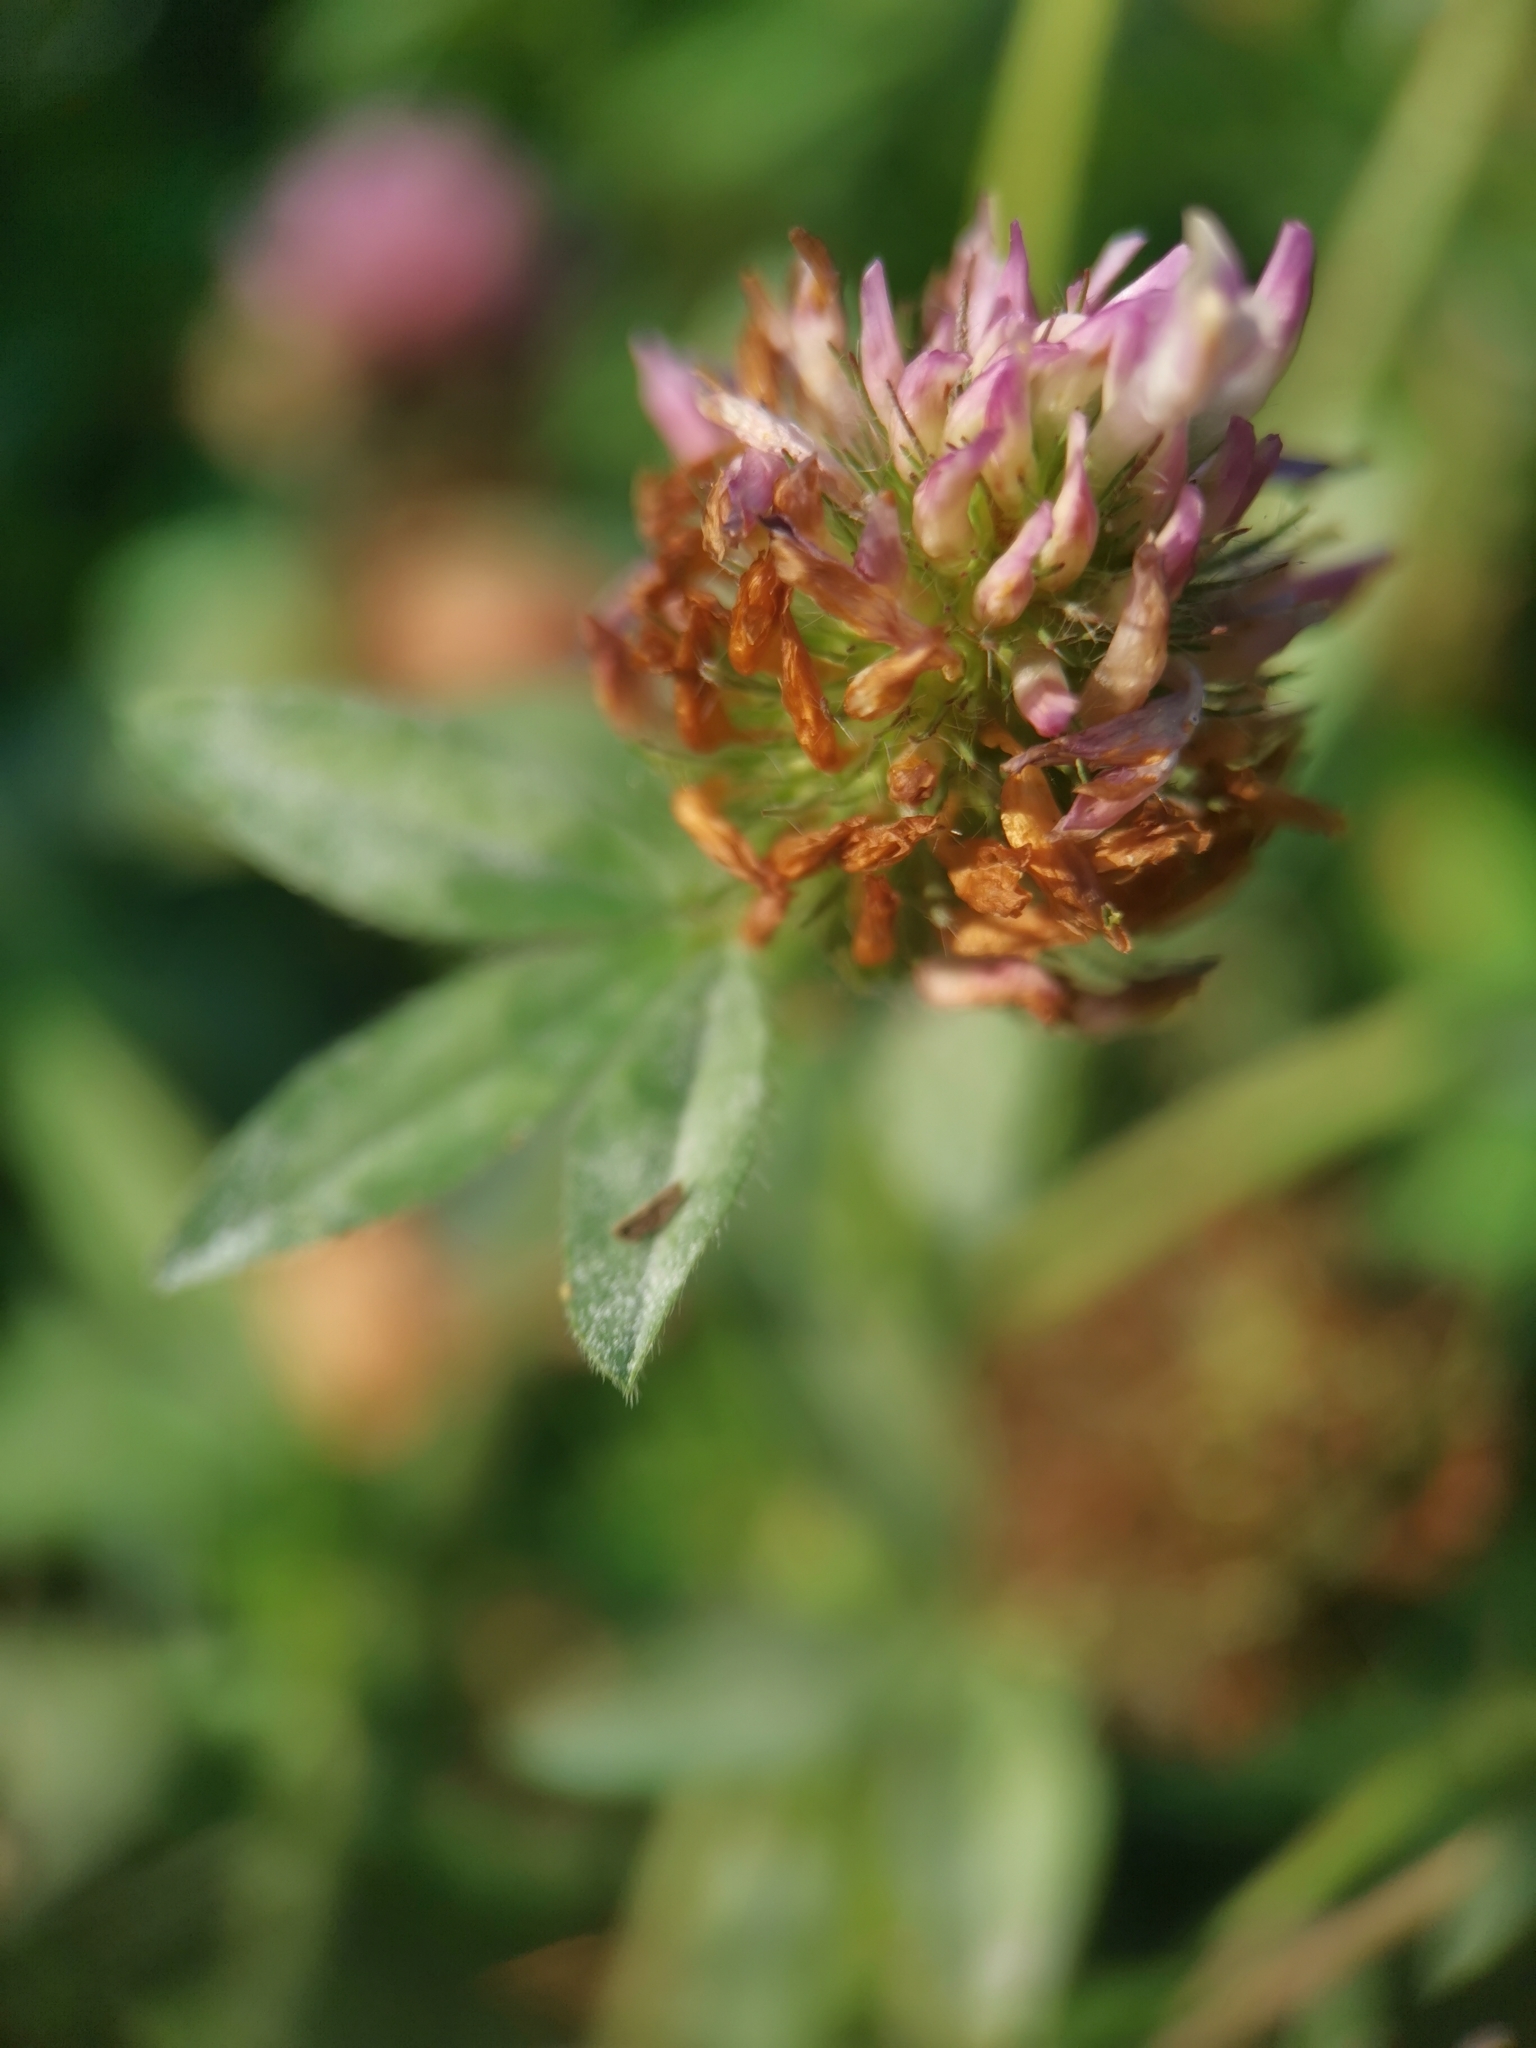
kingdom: Plantae
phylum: Tracheophyta
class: Magnoliopsida
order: Fabales
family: Fabaceae
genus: Trifolium
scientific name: Trifolium pratense
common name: Red clover
